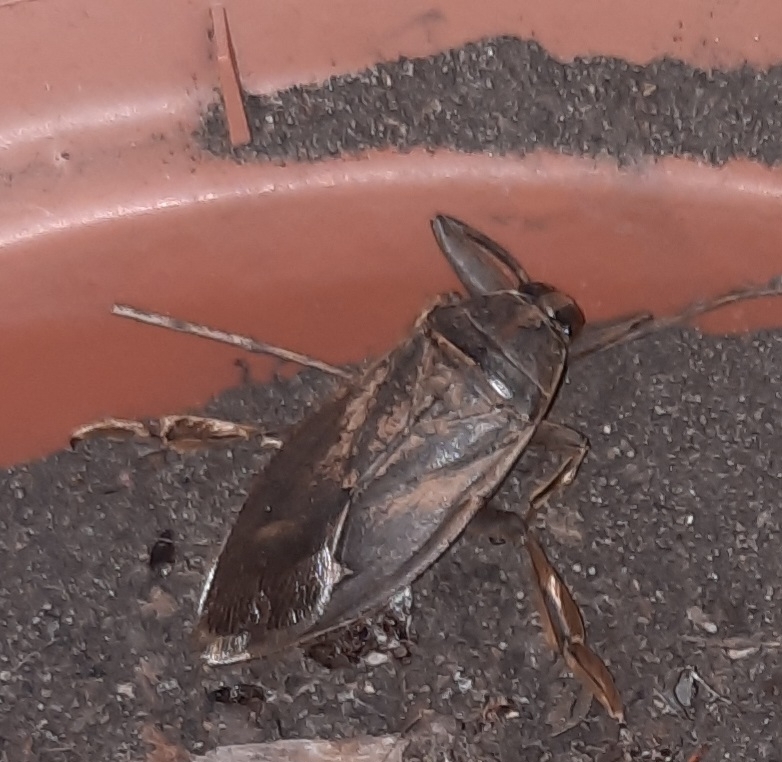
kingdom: Animalia
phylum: Arthropoda
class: Insecta
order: Hemiptera
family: Belostomatidae
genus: Benacus
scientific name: Benacus griseus
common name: Eastern toe-biter
